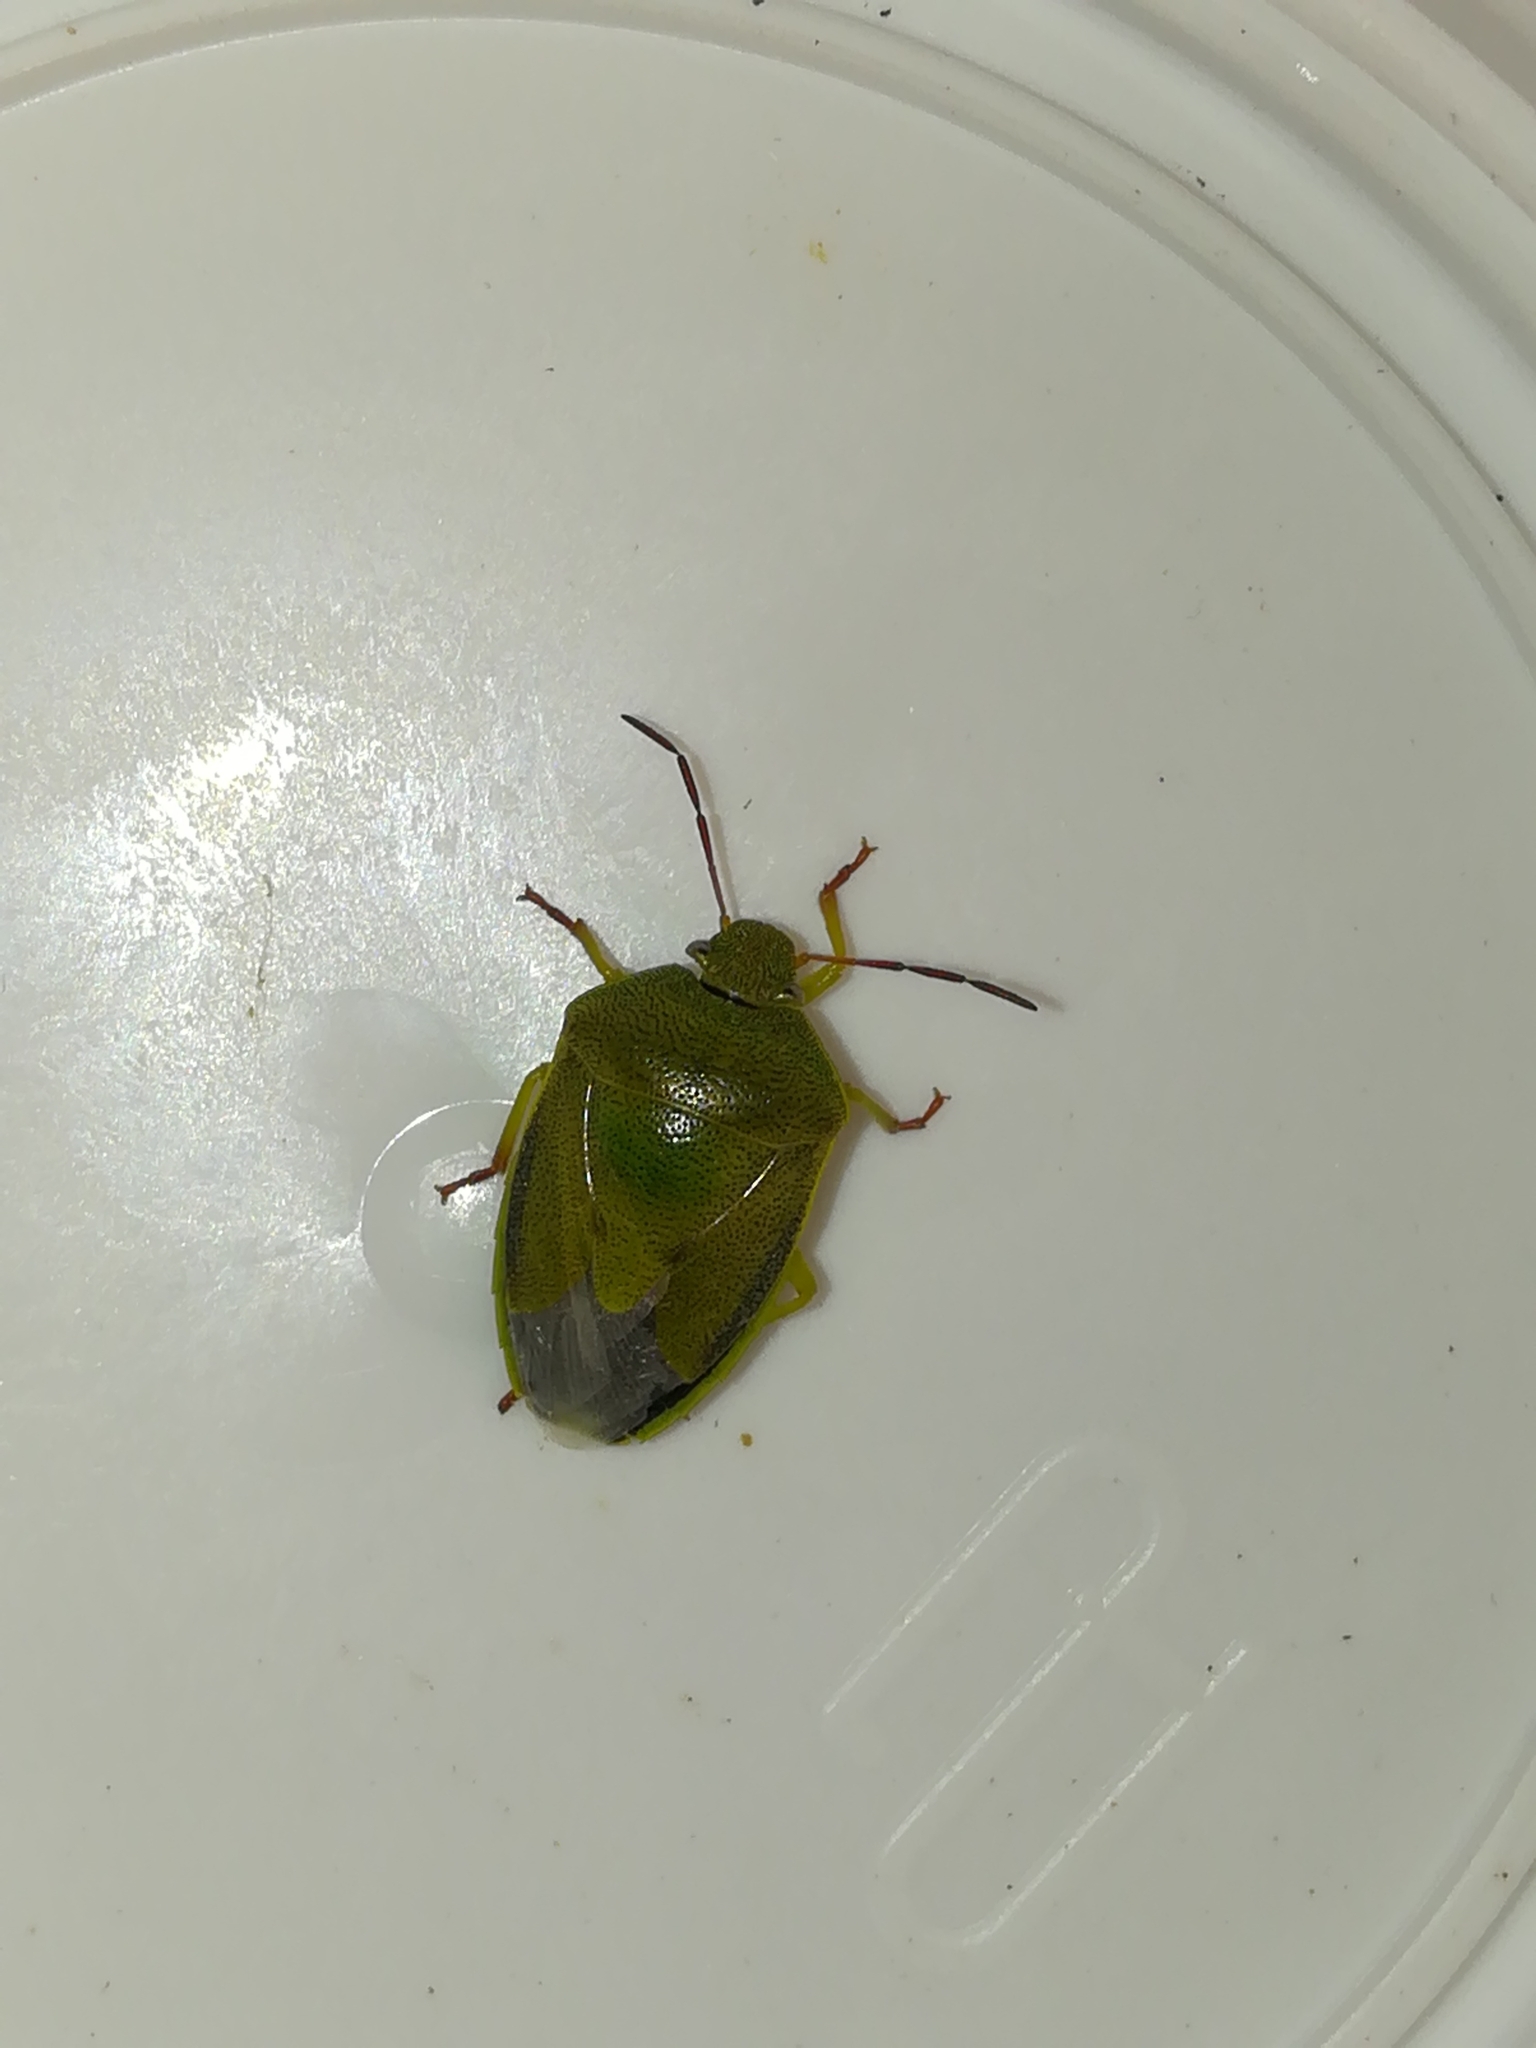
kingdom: Animalia
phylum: Arthropoda
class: Insecta
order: Hemiptera
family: Pentatomidae
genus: Piezodorus
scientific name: Piezodorus lituratus
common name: Stink bug
